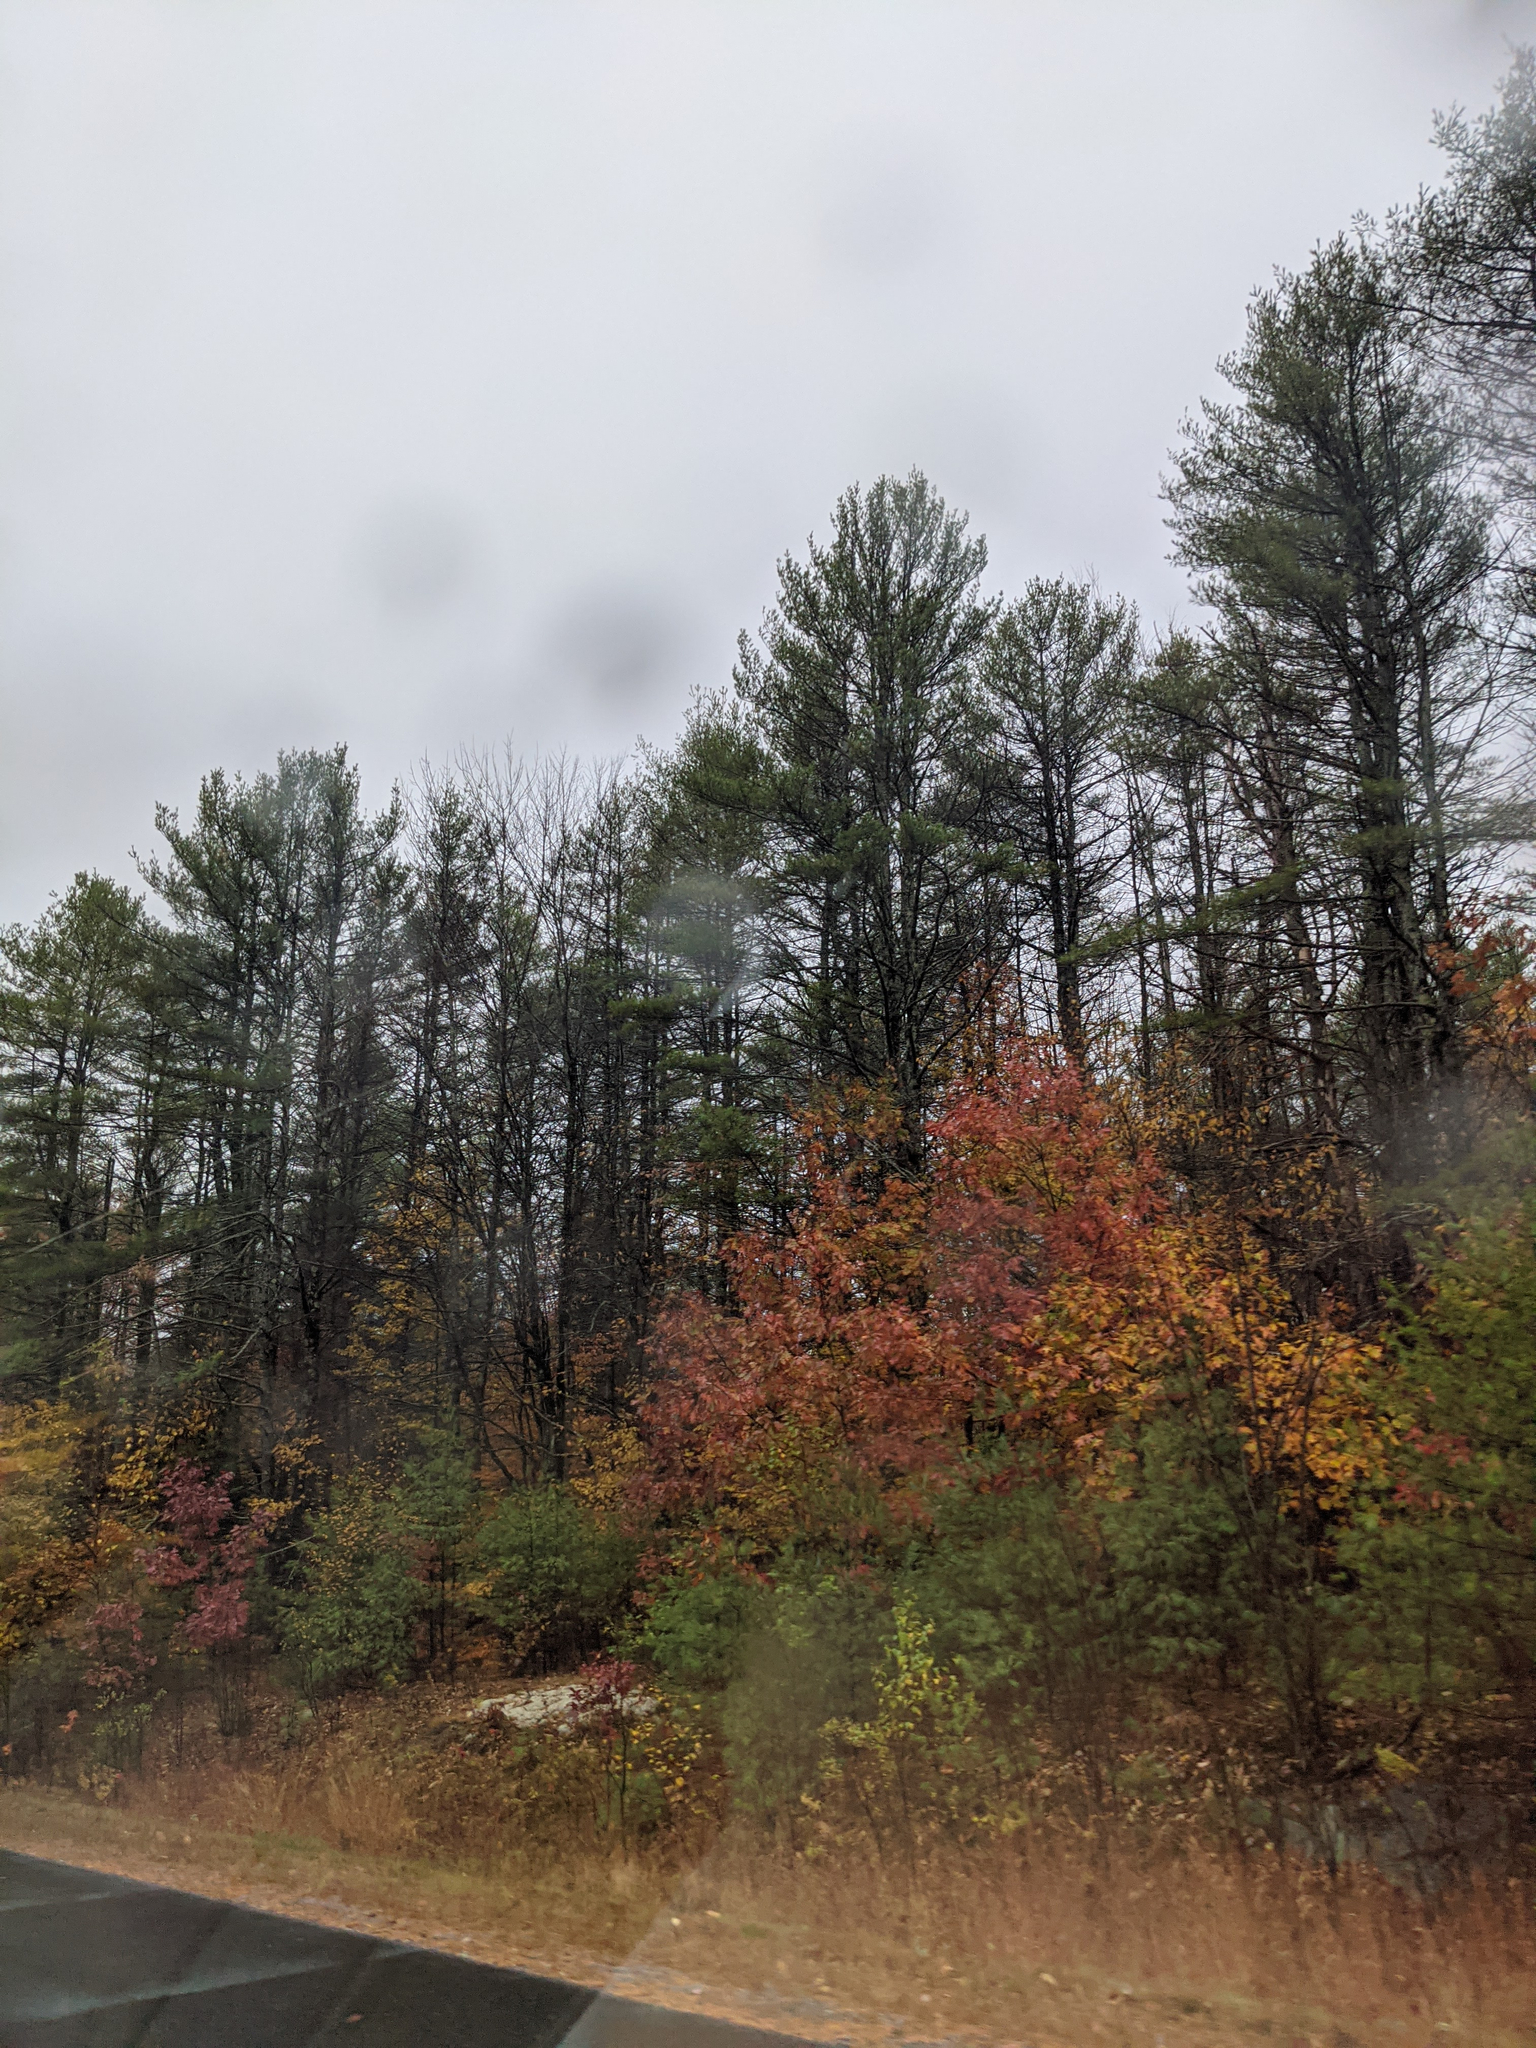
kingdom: Plantae
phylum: Tracheophyta
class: Pinopsida
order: Pinales
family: Pinaceae
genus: Pinus
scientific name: Pinus strobus
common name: Weymouth pine
